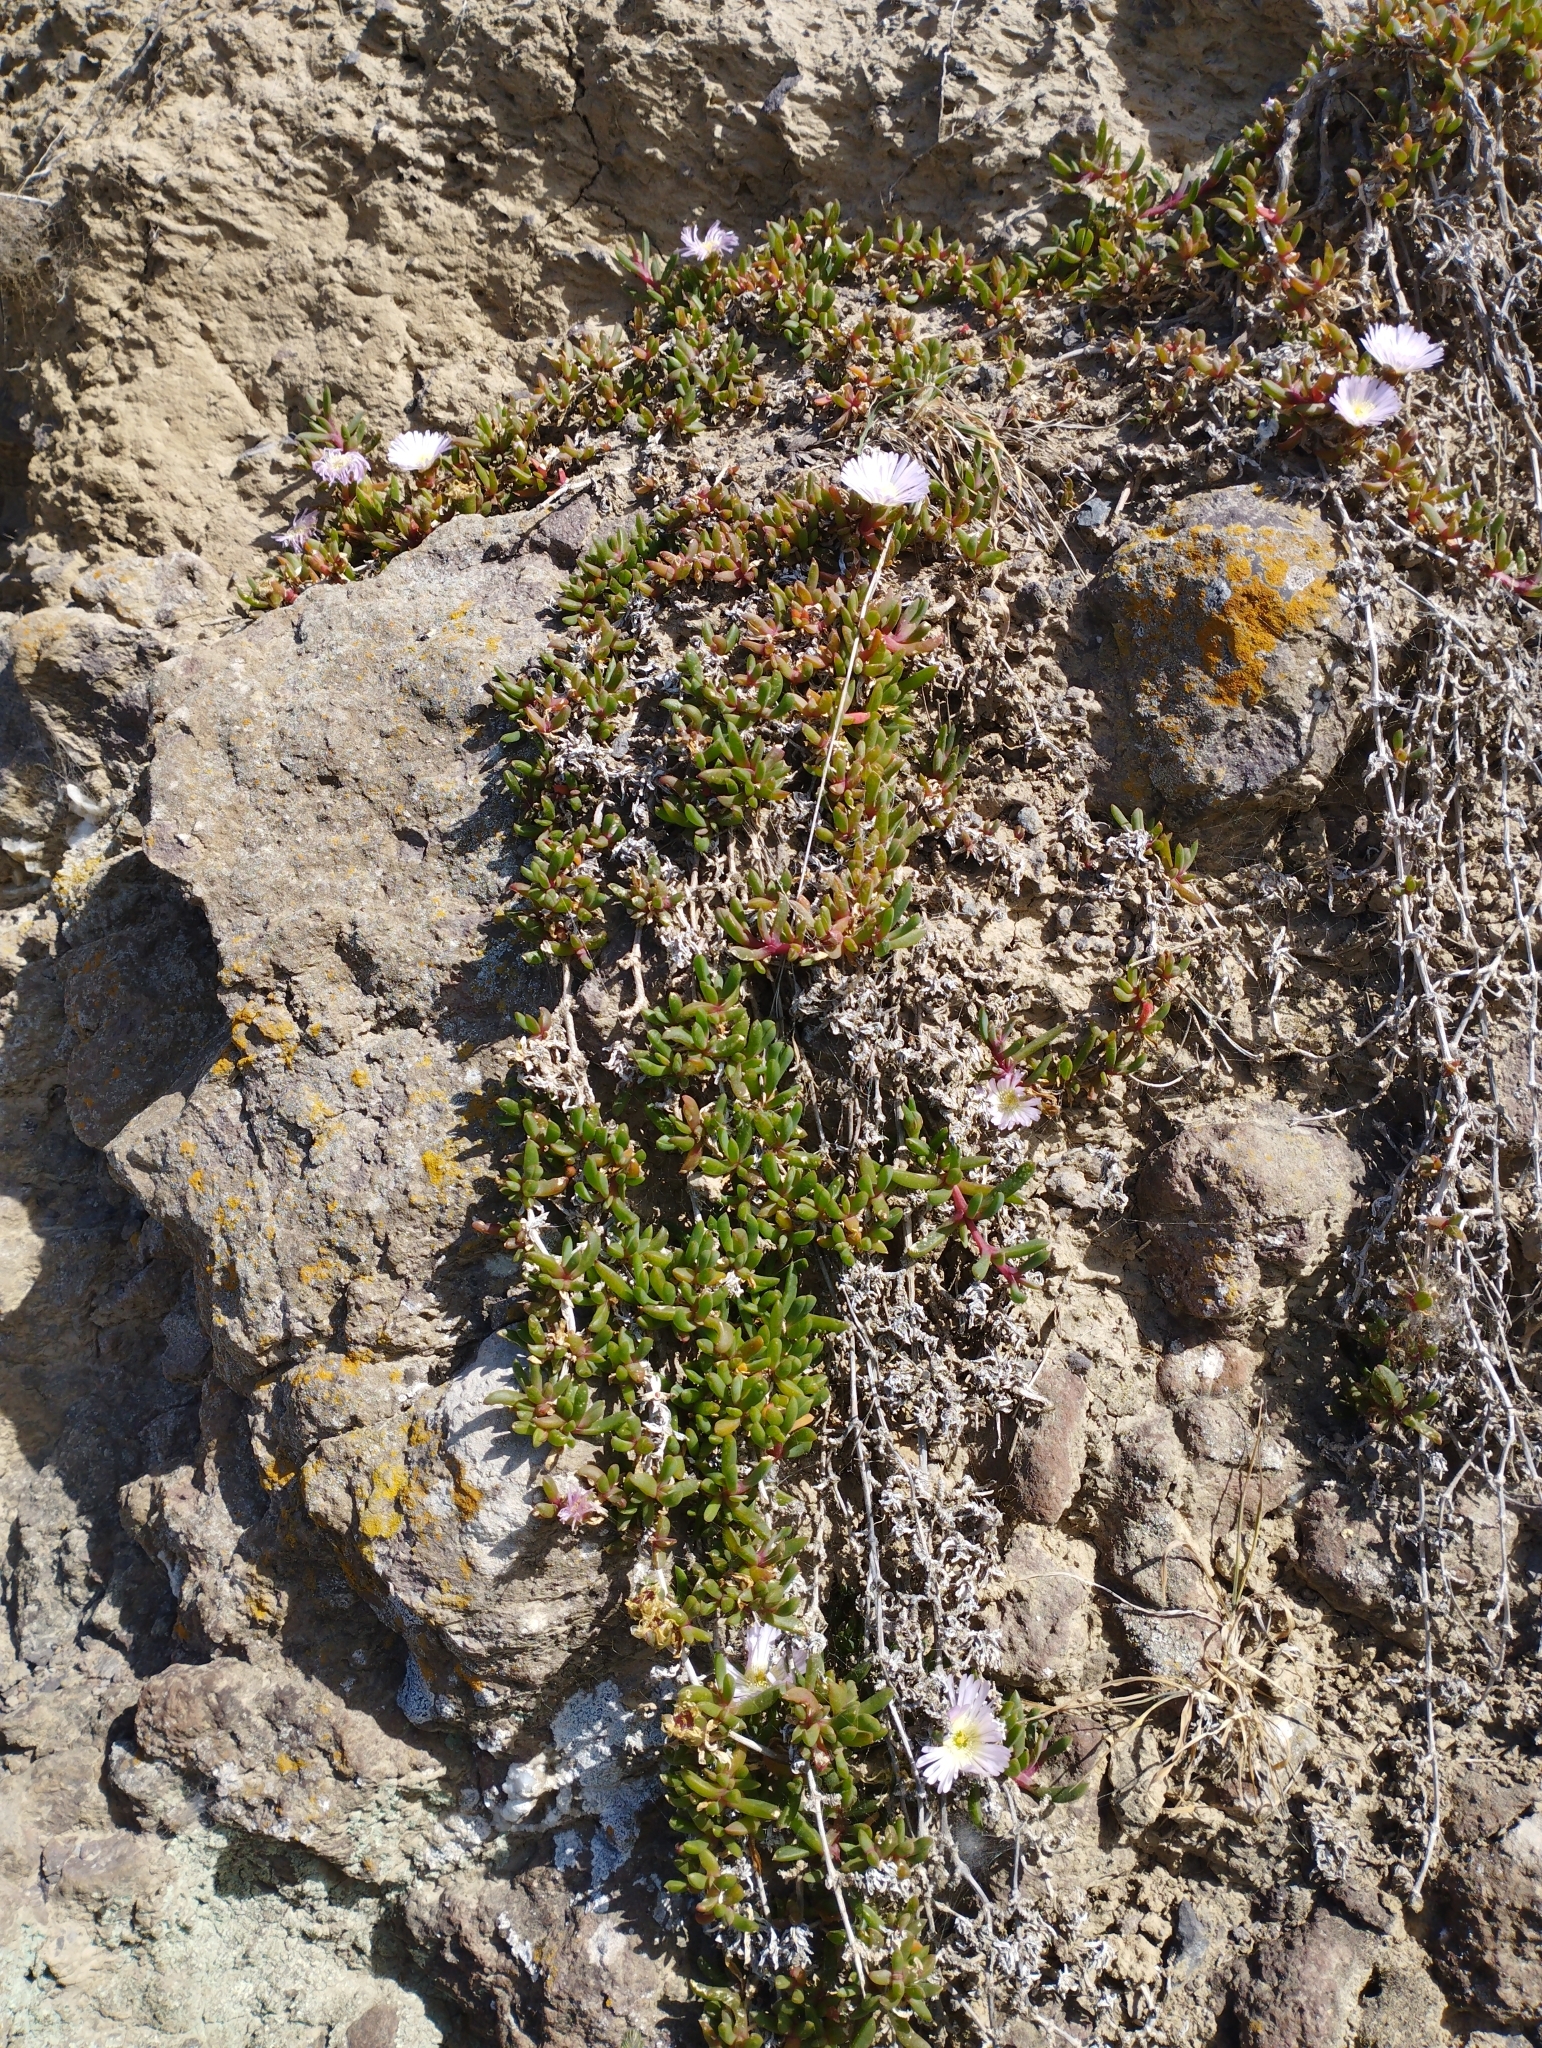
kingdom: Plantae
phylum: Tracheophyta
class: Magnoliopsida
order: Caryophyllales
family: Aizoaceae
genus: Disphyma
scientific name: Disphyma australe
